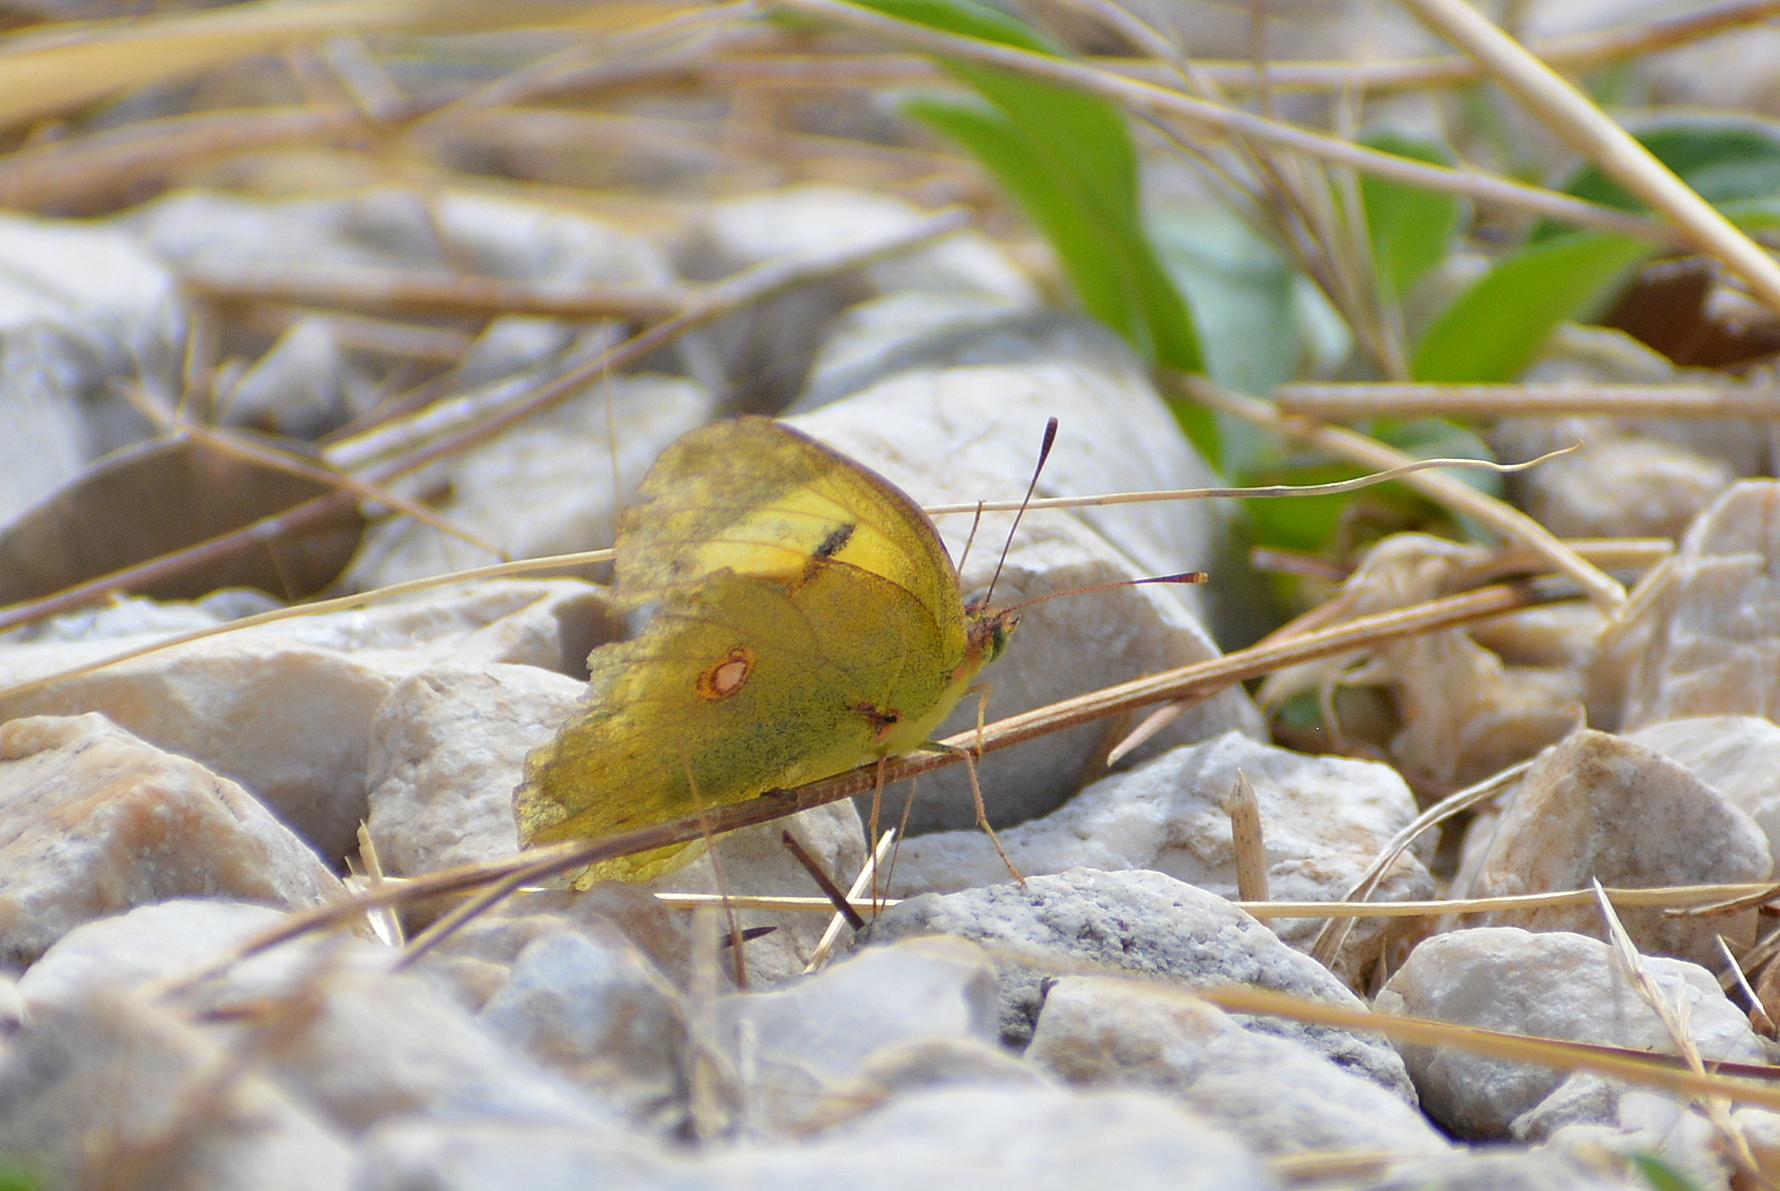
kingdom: Animalia
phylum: Arthropoda
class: Insecta
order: Lepidoptera
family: Pieridae
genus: Colias
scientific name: Colias croceus
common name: Clouded yellow
